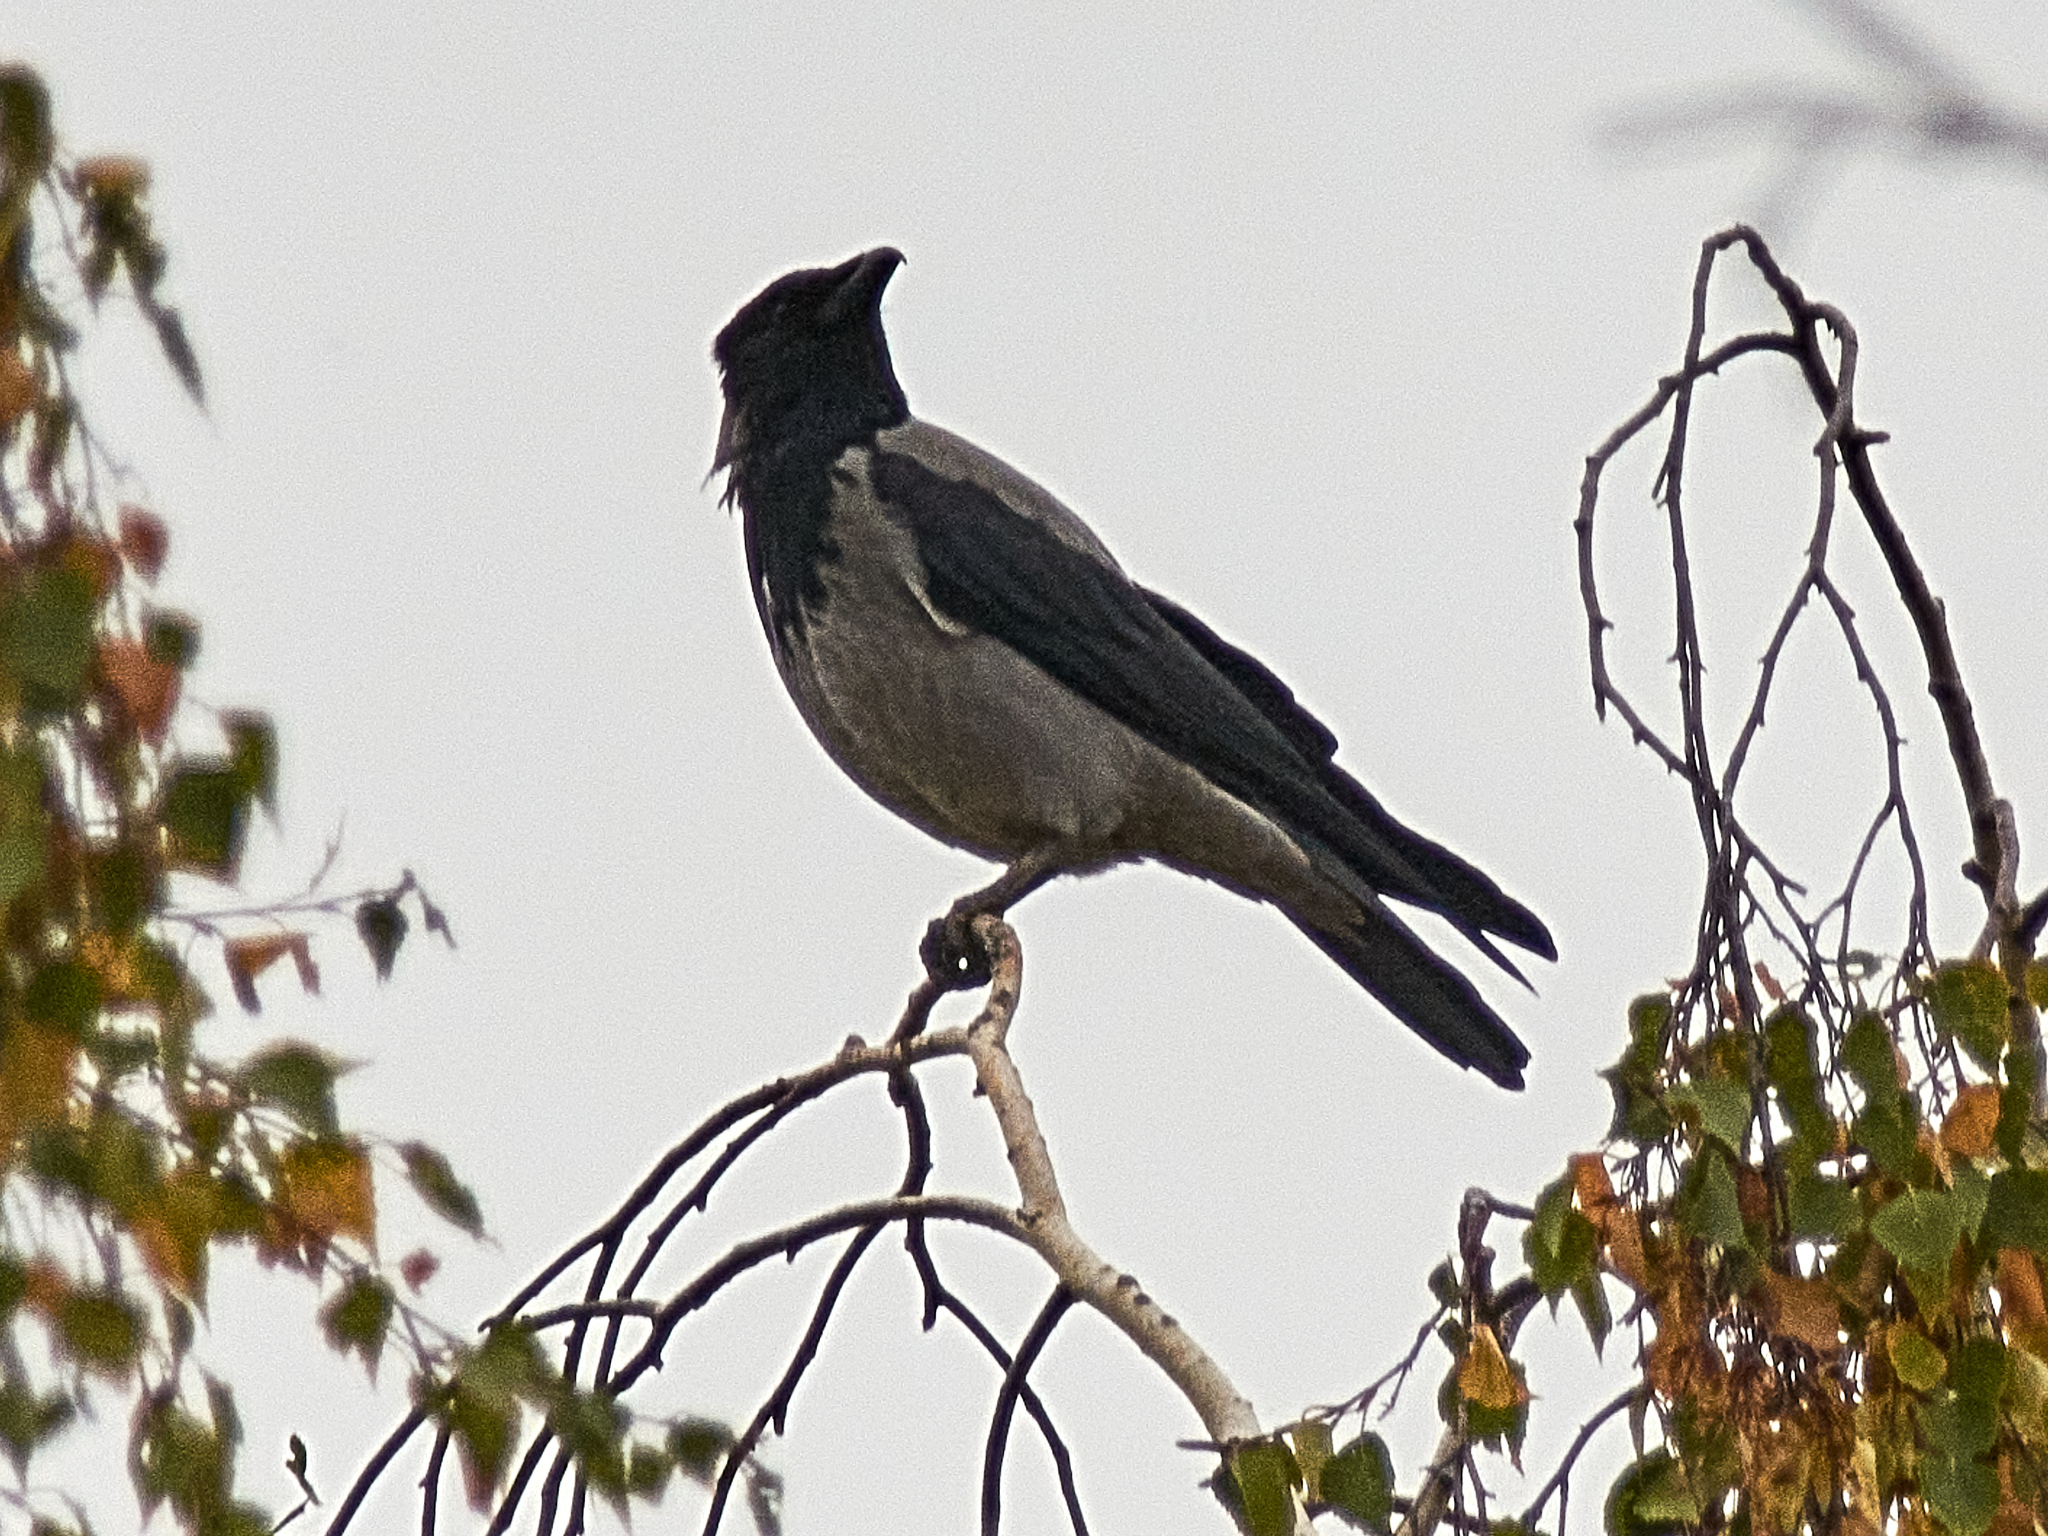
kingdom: Animalia
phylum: Chordata
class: Aves
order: Passeriformes
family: Corvidae
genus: Corvus
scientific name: Corvus cornix
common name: Hooded crow
